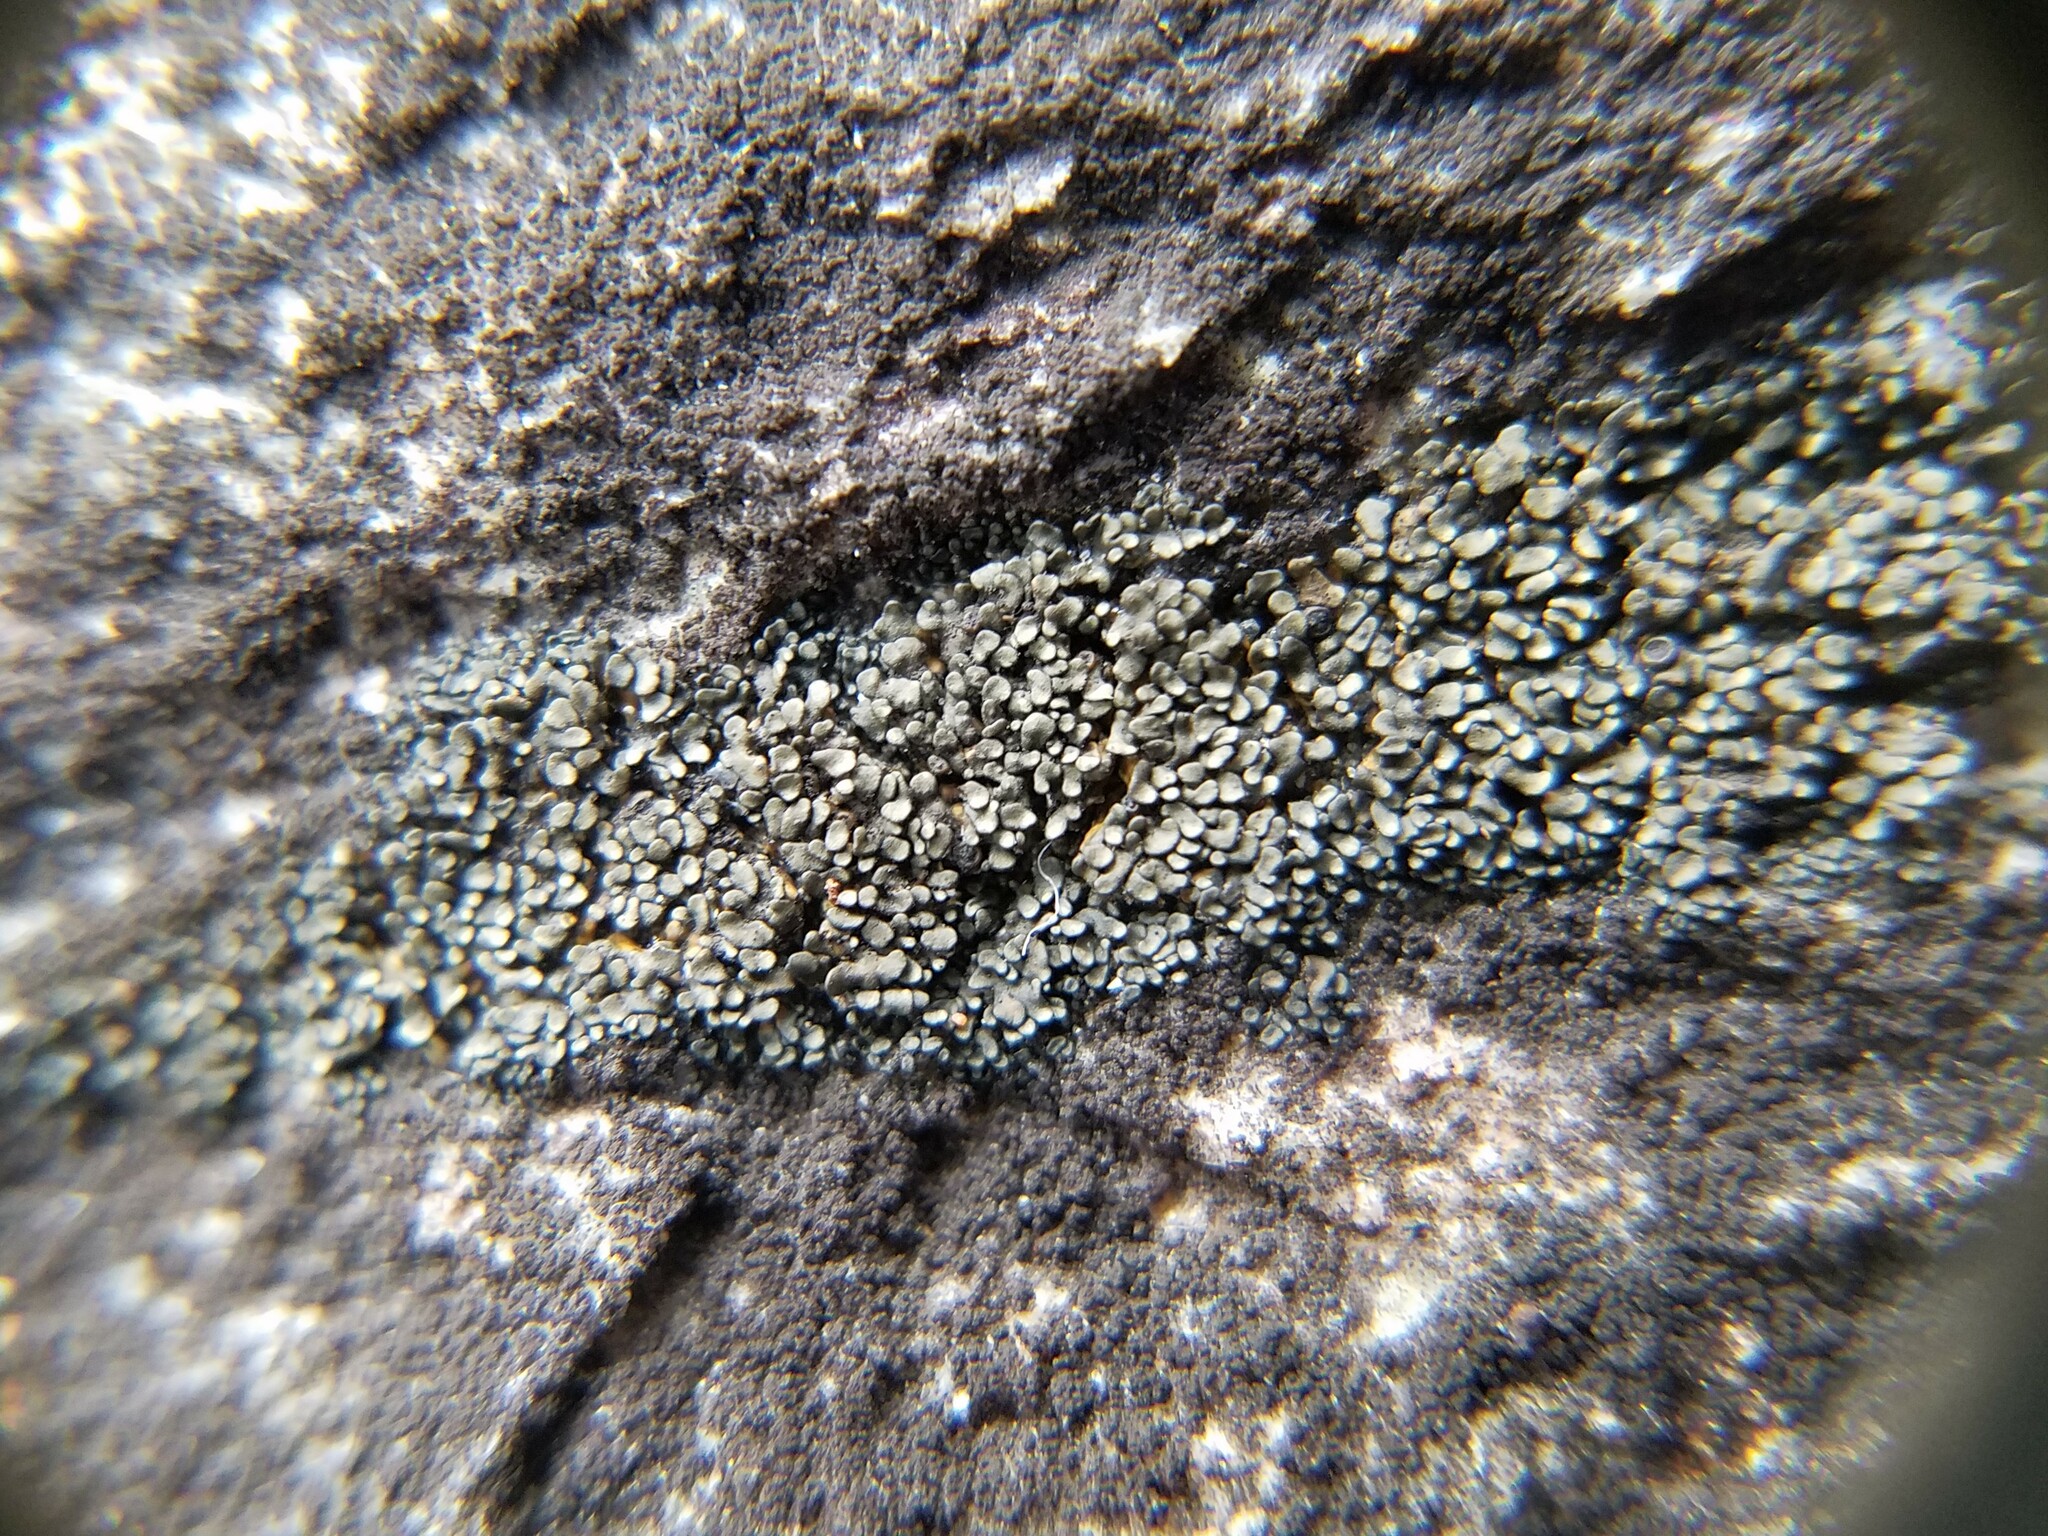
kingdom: Fungi
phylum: Ascomycota
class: Lichinomycetes
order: Lichinales
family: Peltulaceae
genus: Peltula
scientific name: Peltula cylindrica
